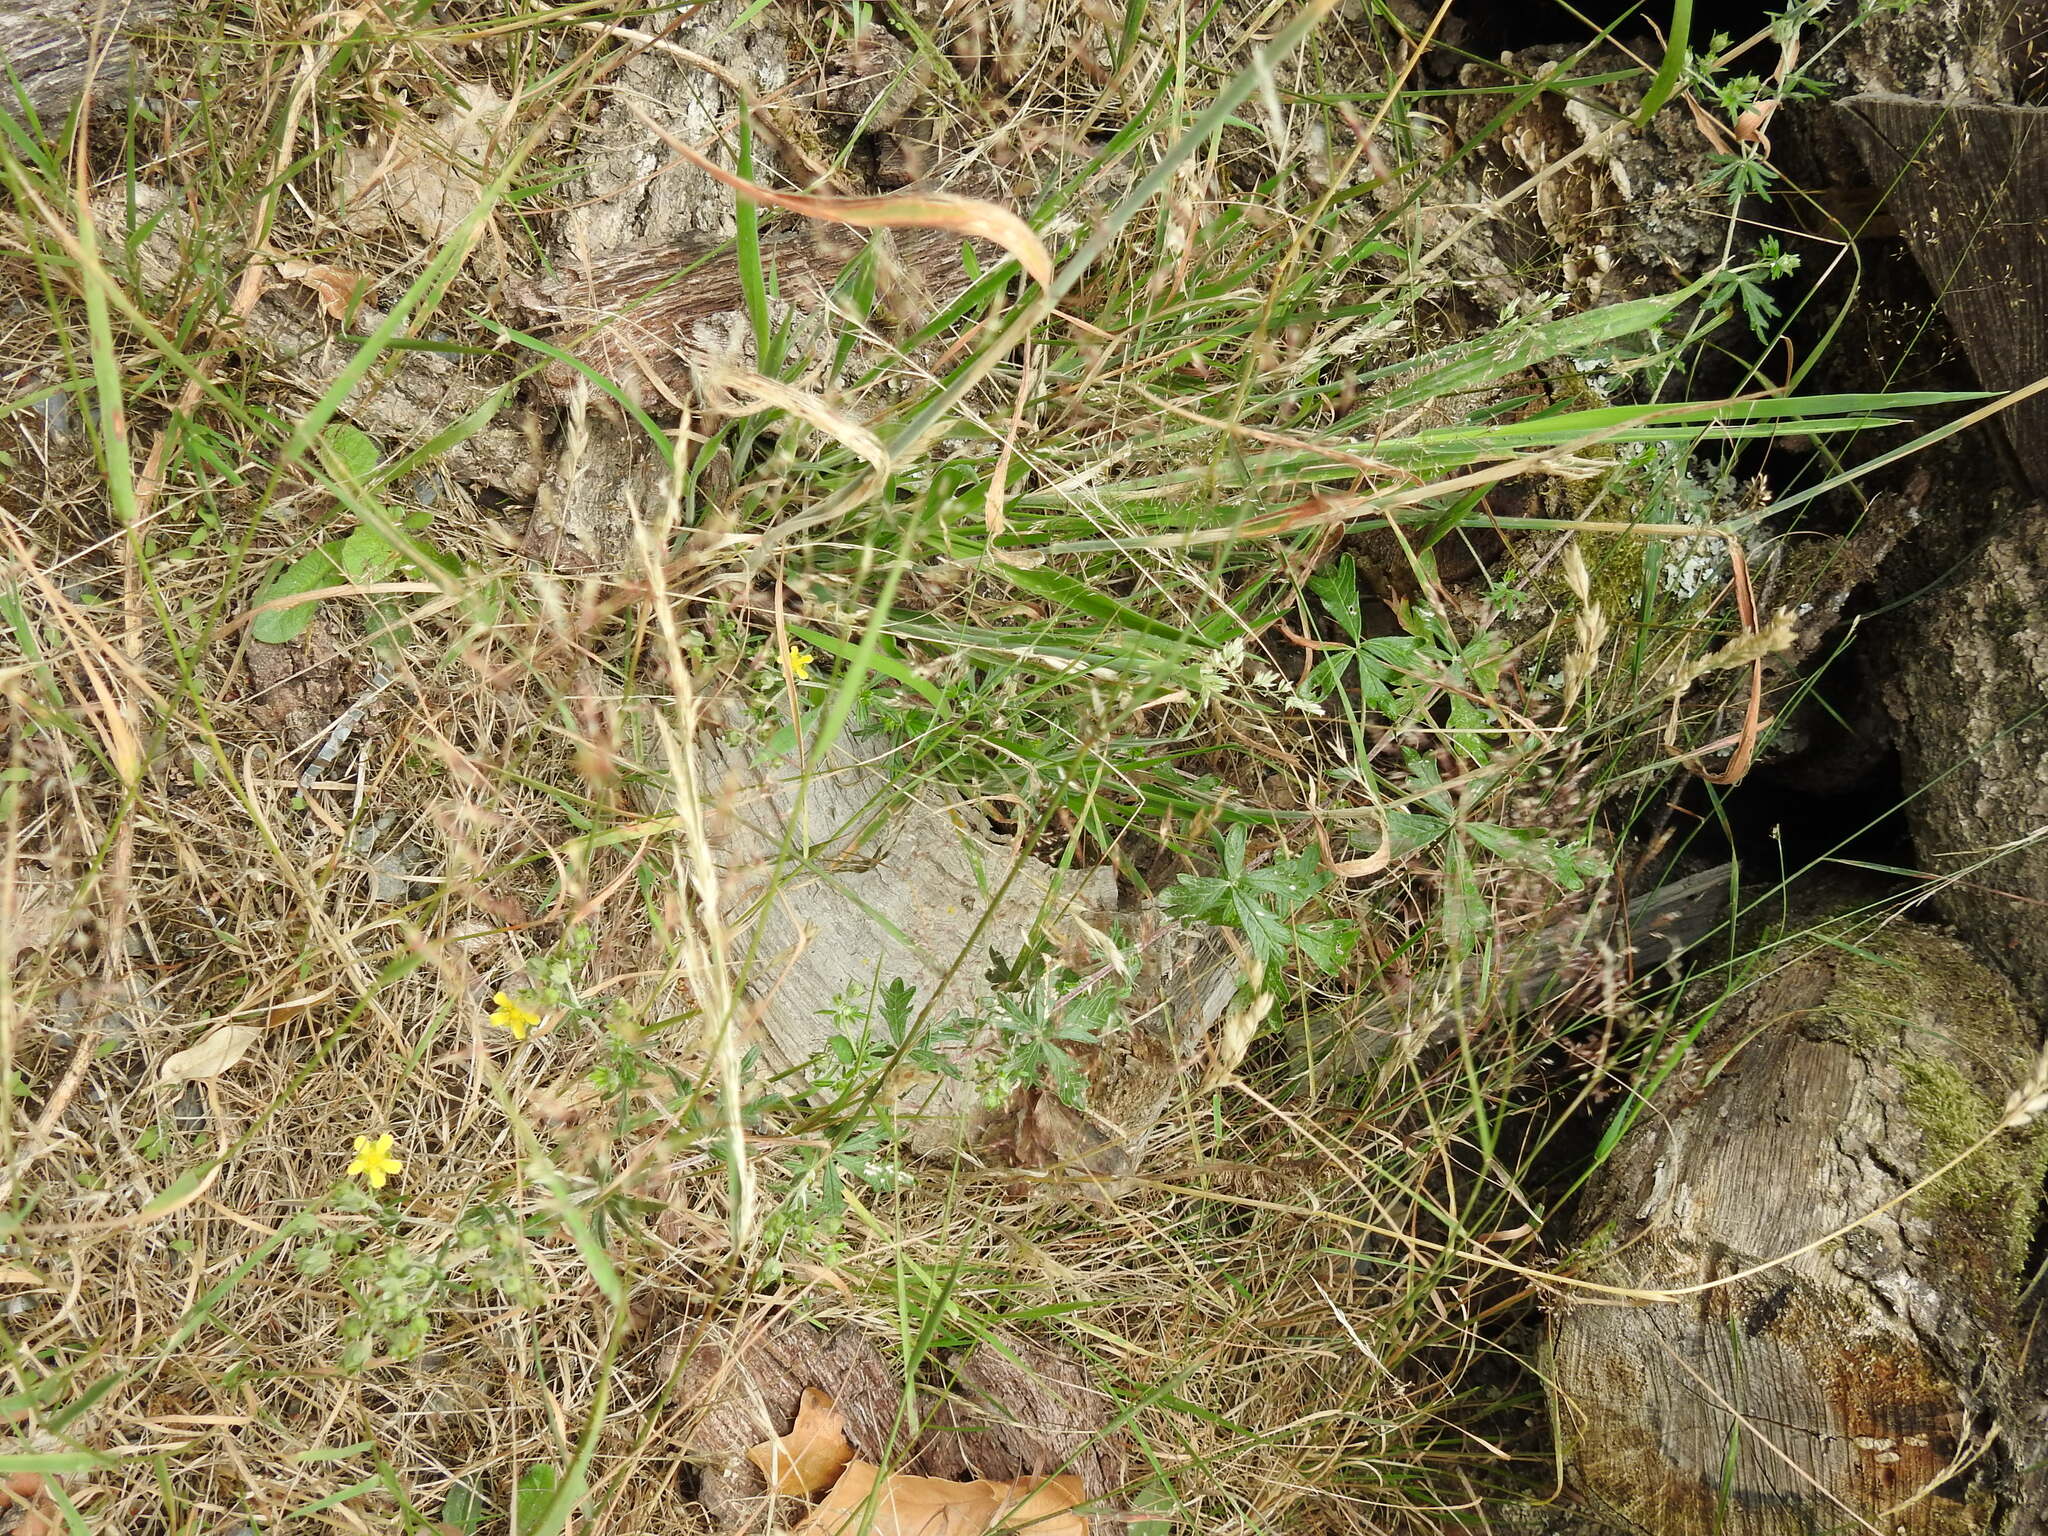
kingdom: Plantae
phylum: Tracheophyta
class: Magnoliopsida
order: Rosales
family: Rosaceae
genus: Potentilla
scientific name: Potentilla argentea
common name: Hoary cinquefoil
